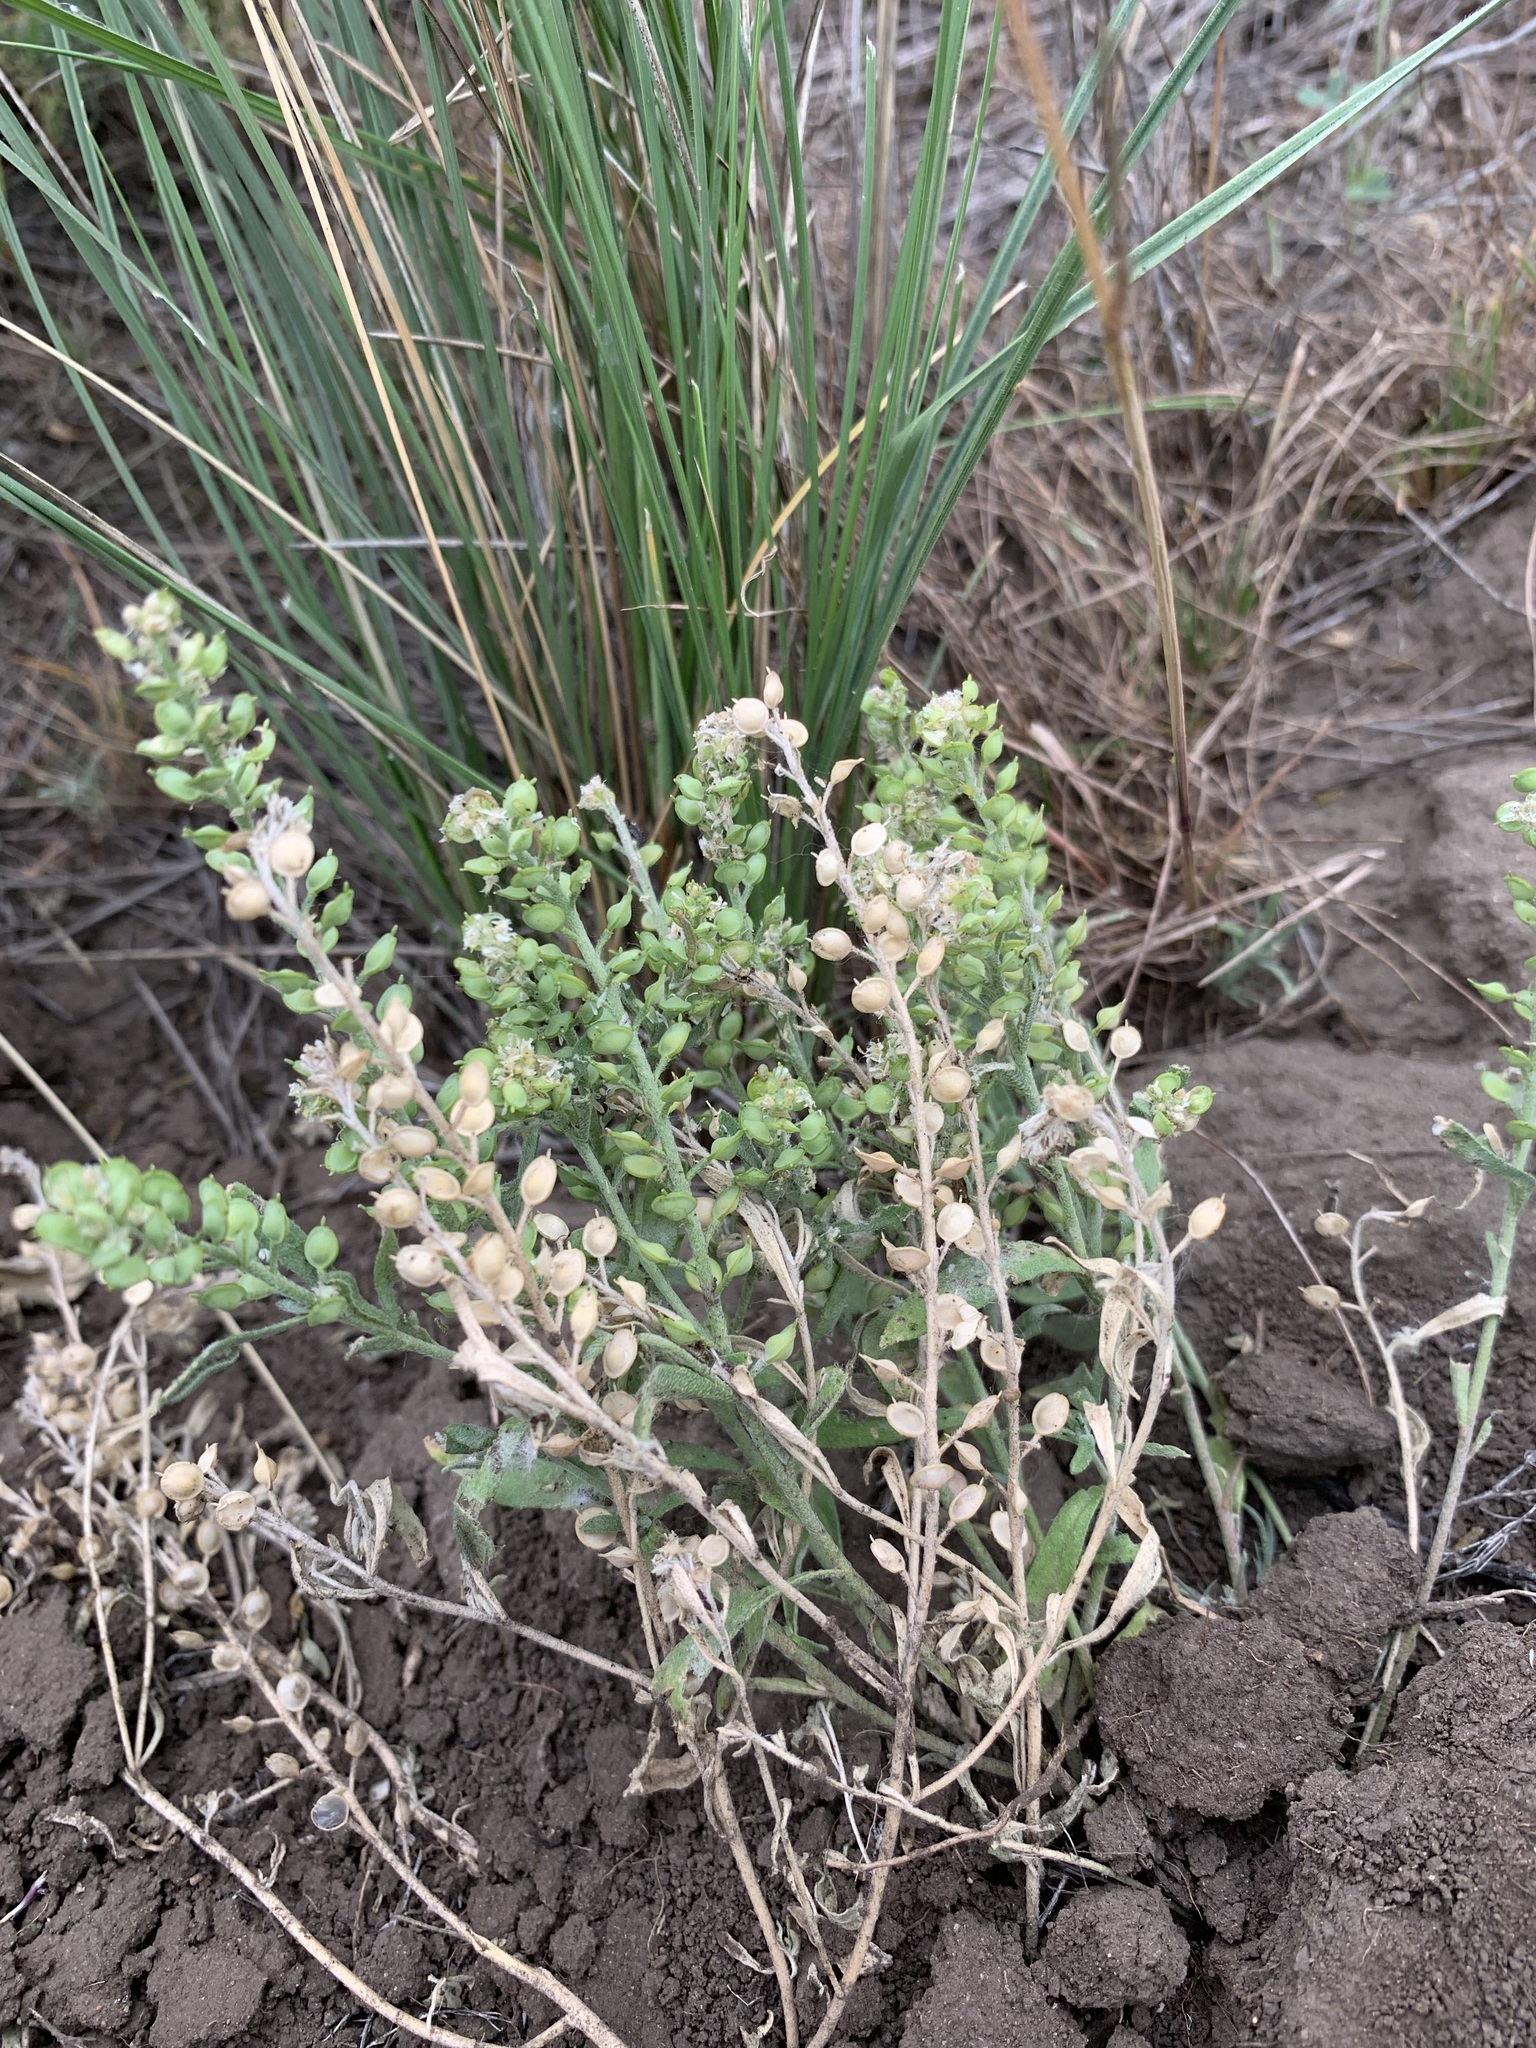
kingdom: Plantae
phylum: Tracheophyta
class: Magnoliopsida
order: Brassicales
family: Brassicaceae
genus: Alyssum
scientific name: Alyssum turkestanicum
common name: Desert alyssum
